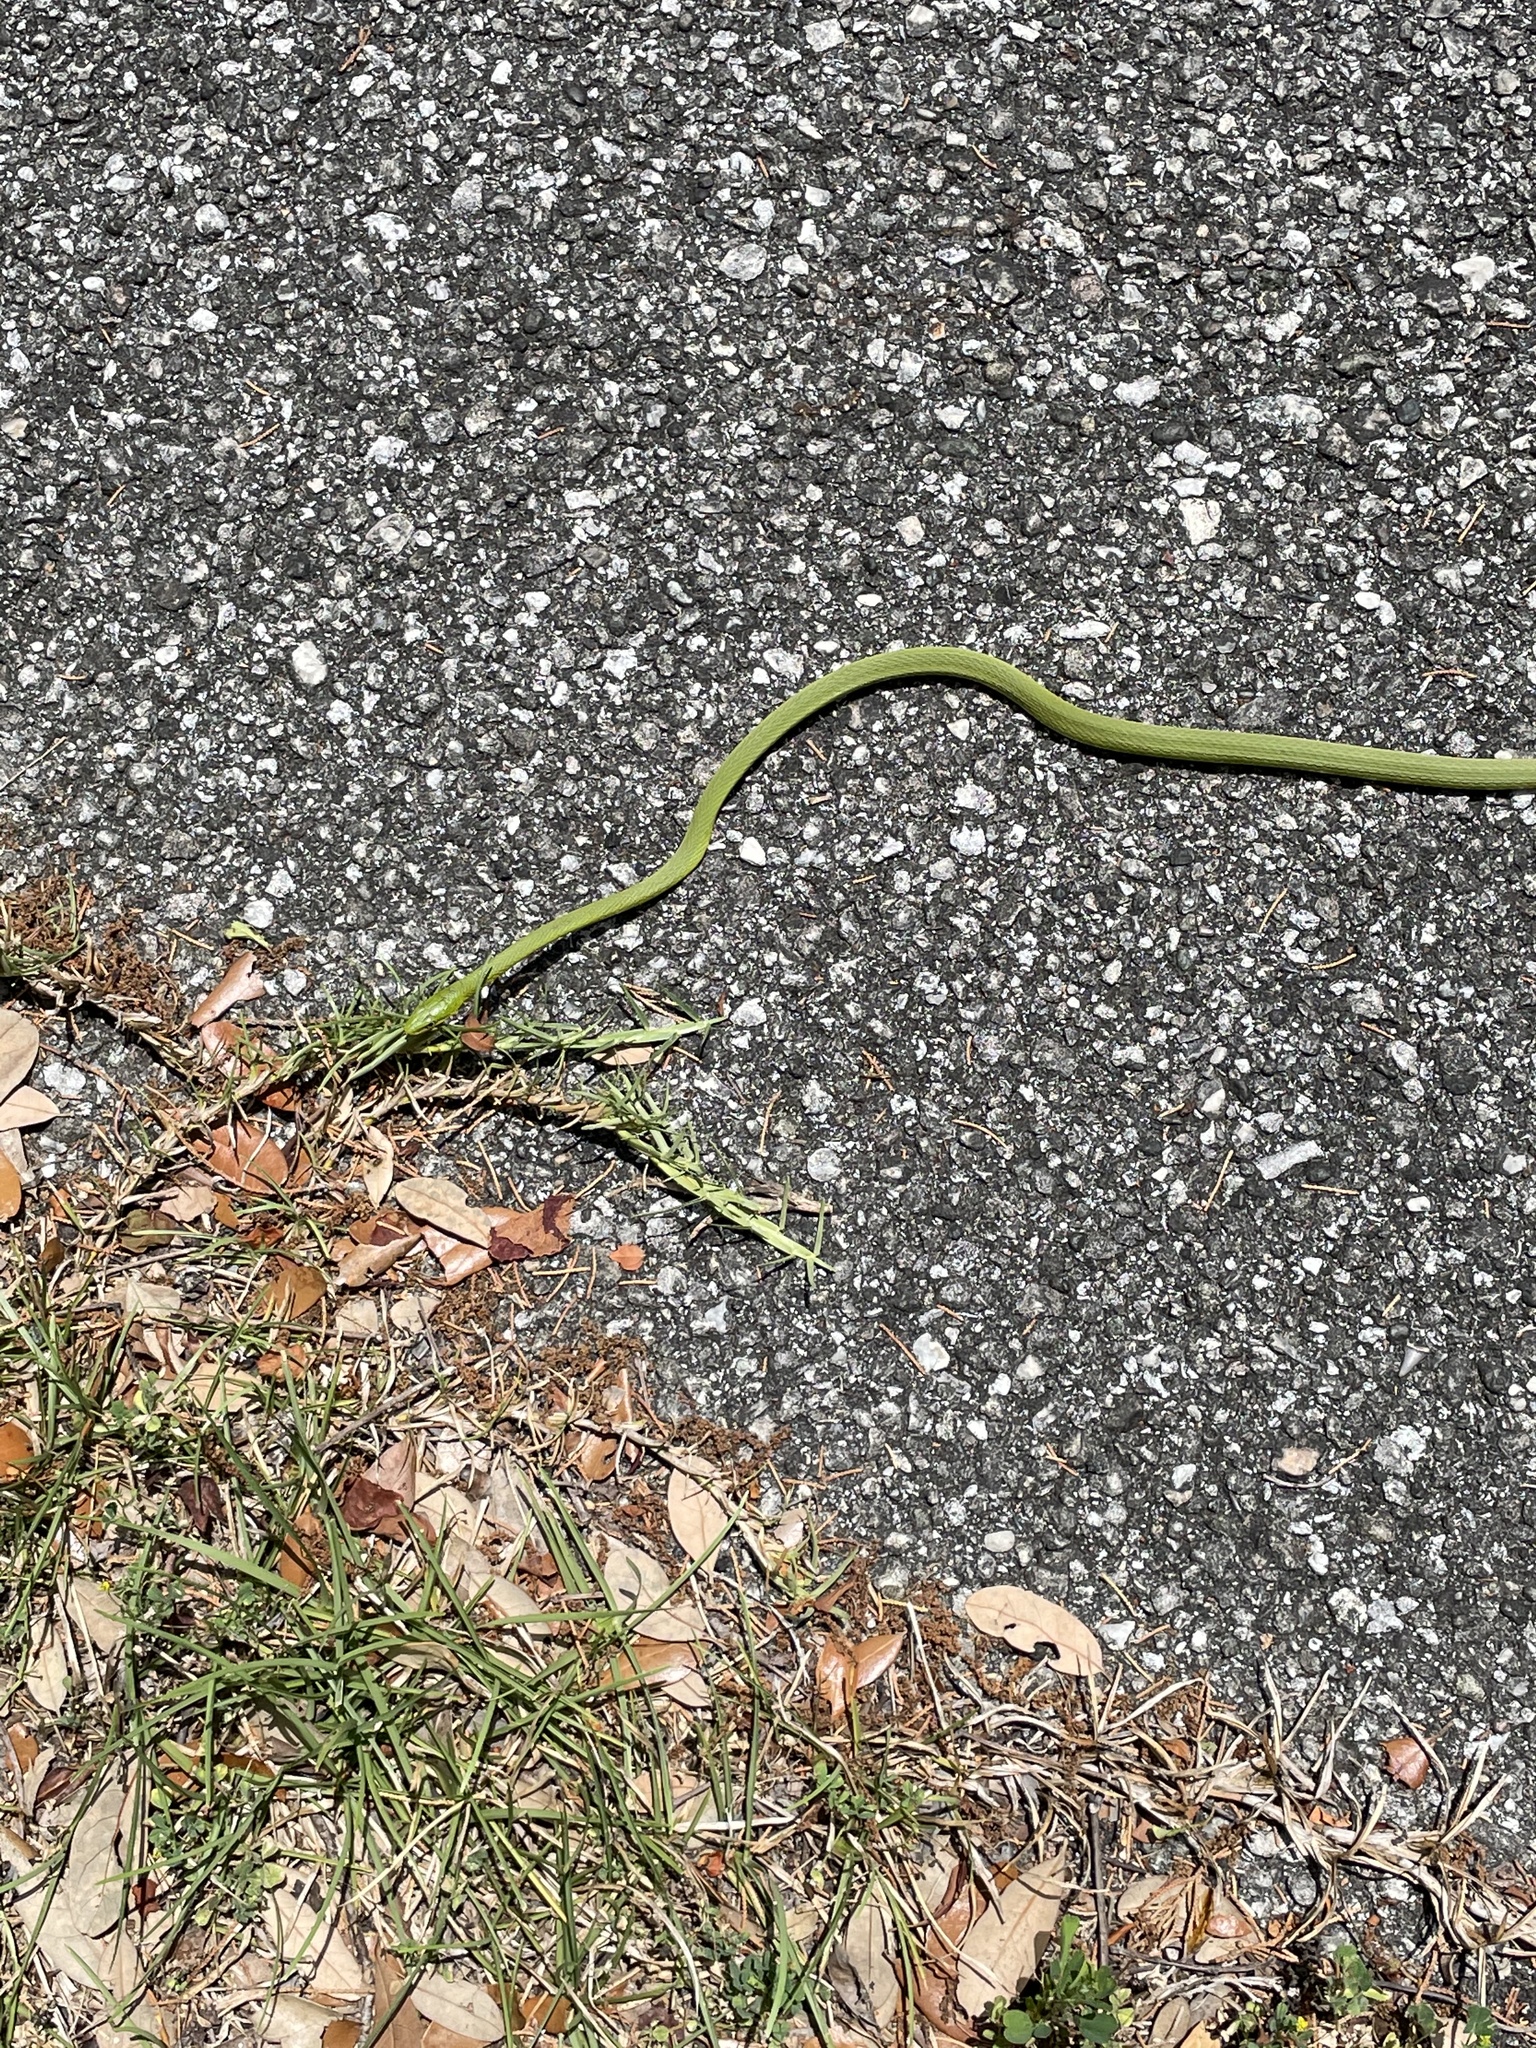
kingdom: Animalia
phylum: Chordata
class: Squamata
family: Colubridae
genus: Opheodrys
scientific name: Opheodrys aestivus
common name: Rough greensnake
